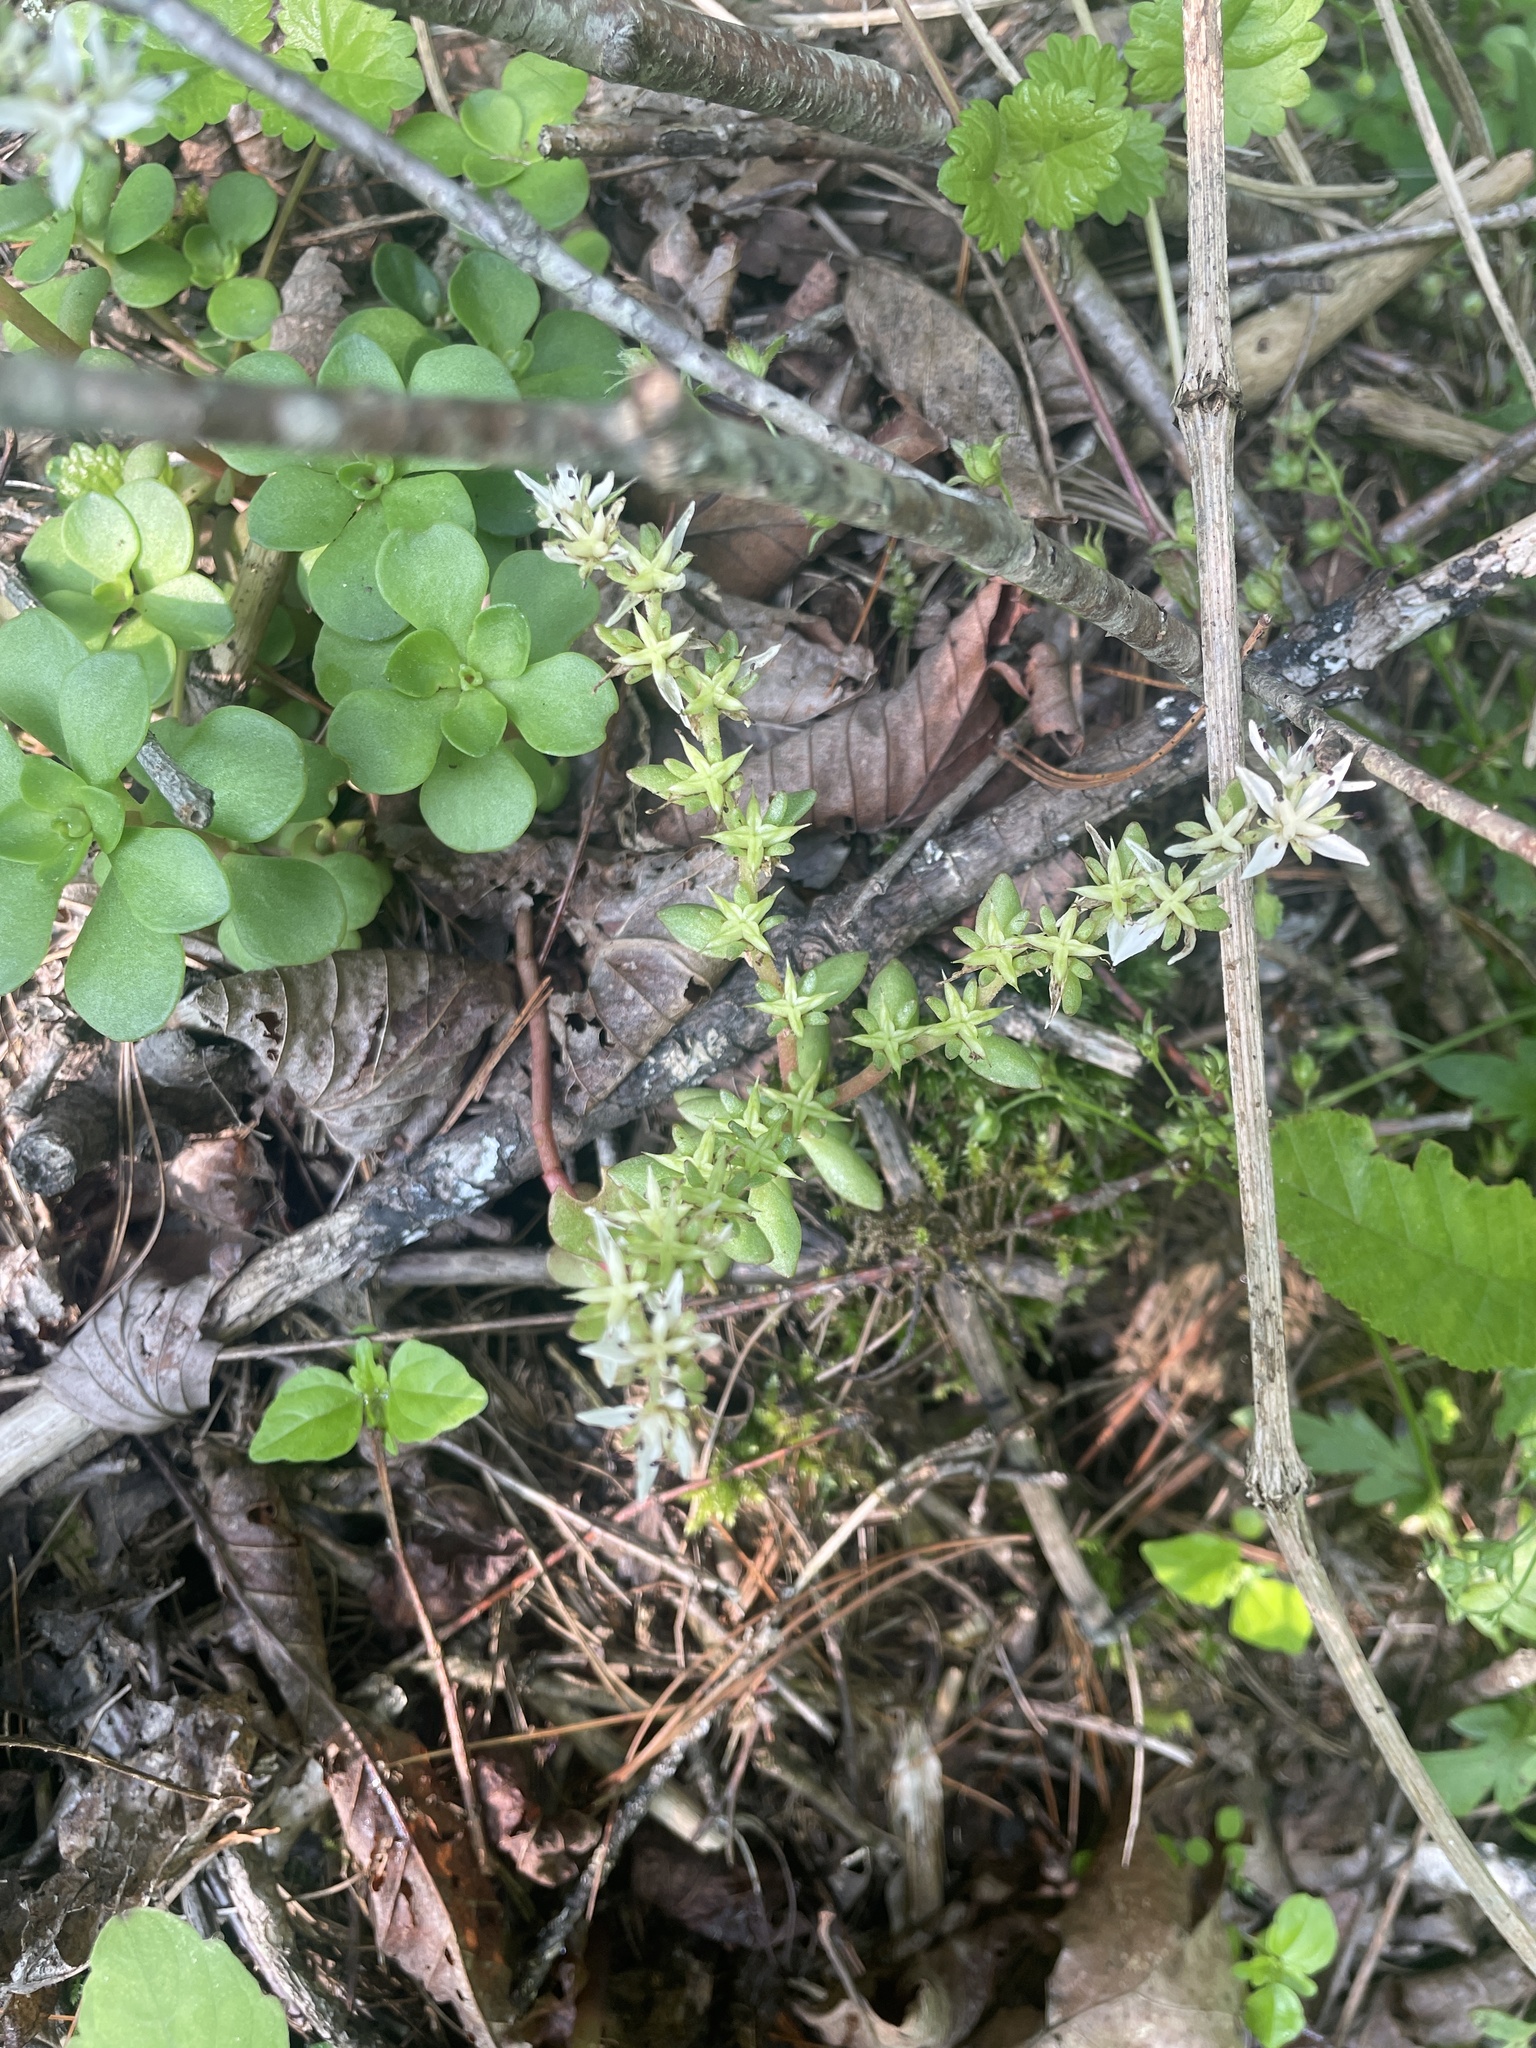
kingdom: Plantae
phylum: Tracheophyta
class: Magnoliopsida
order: Saxifragales
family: Crassulaceae
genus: Sedum
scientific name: Sedum ternatum
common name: Wild stonecrop
